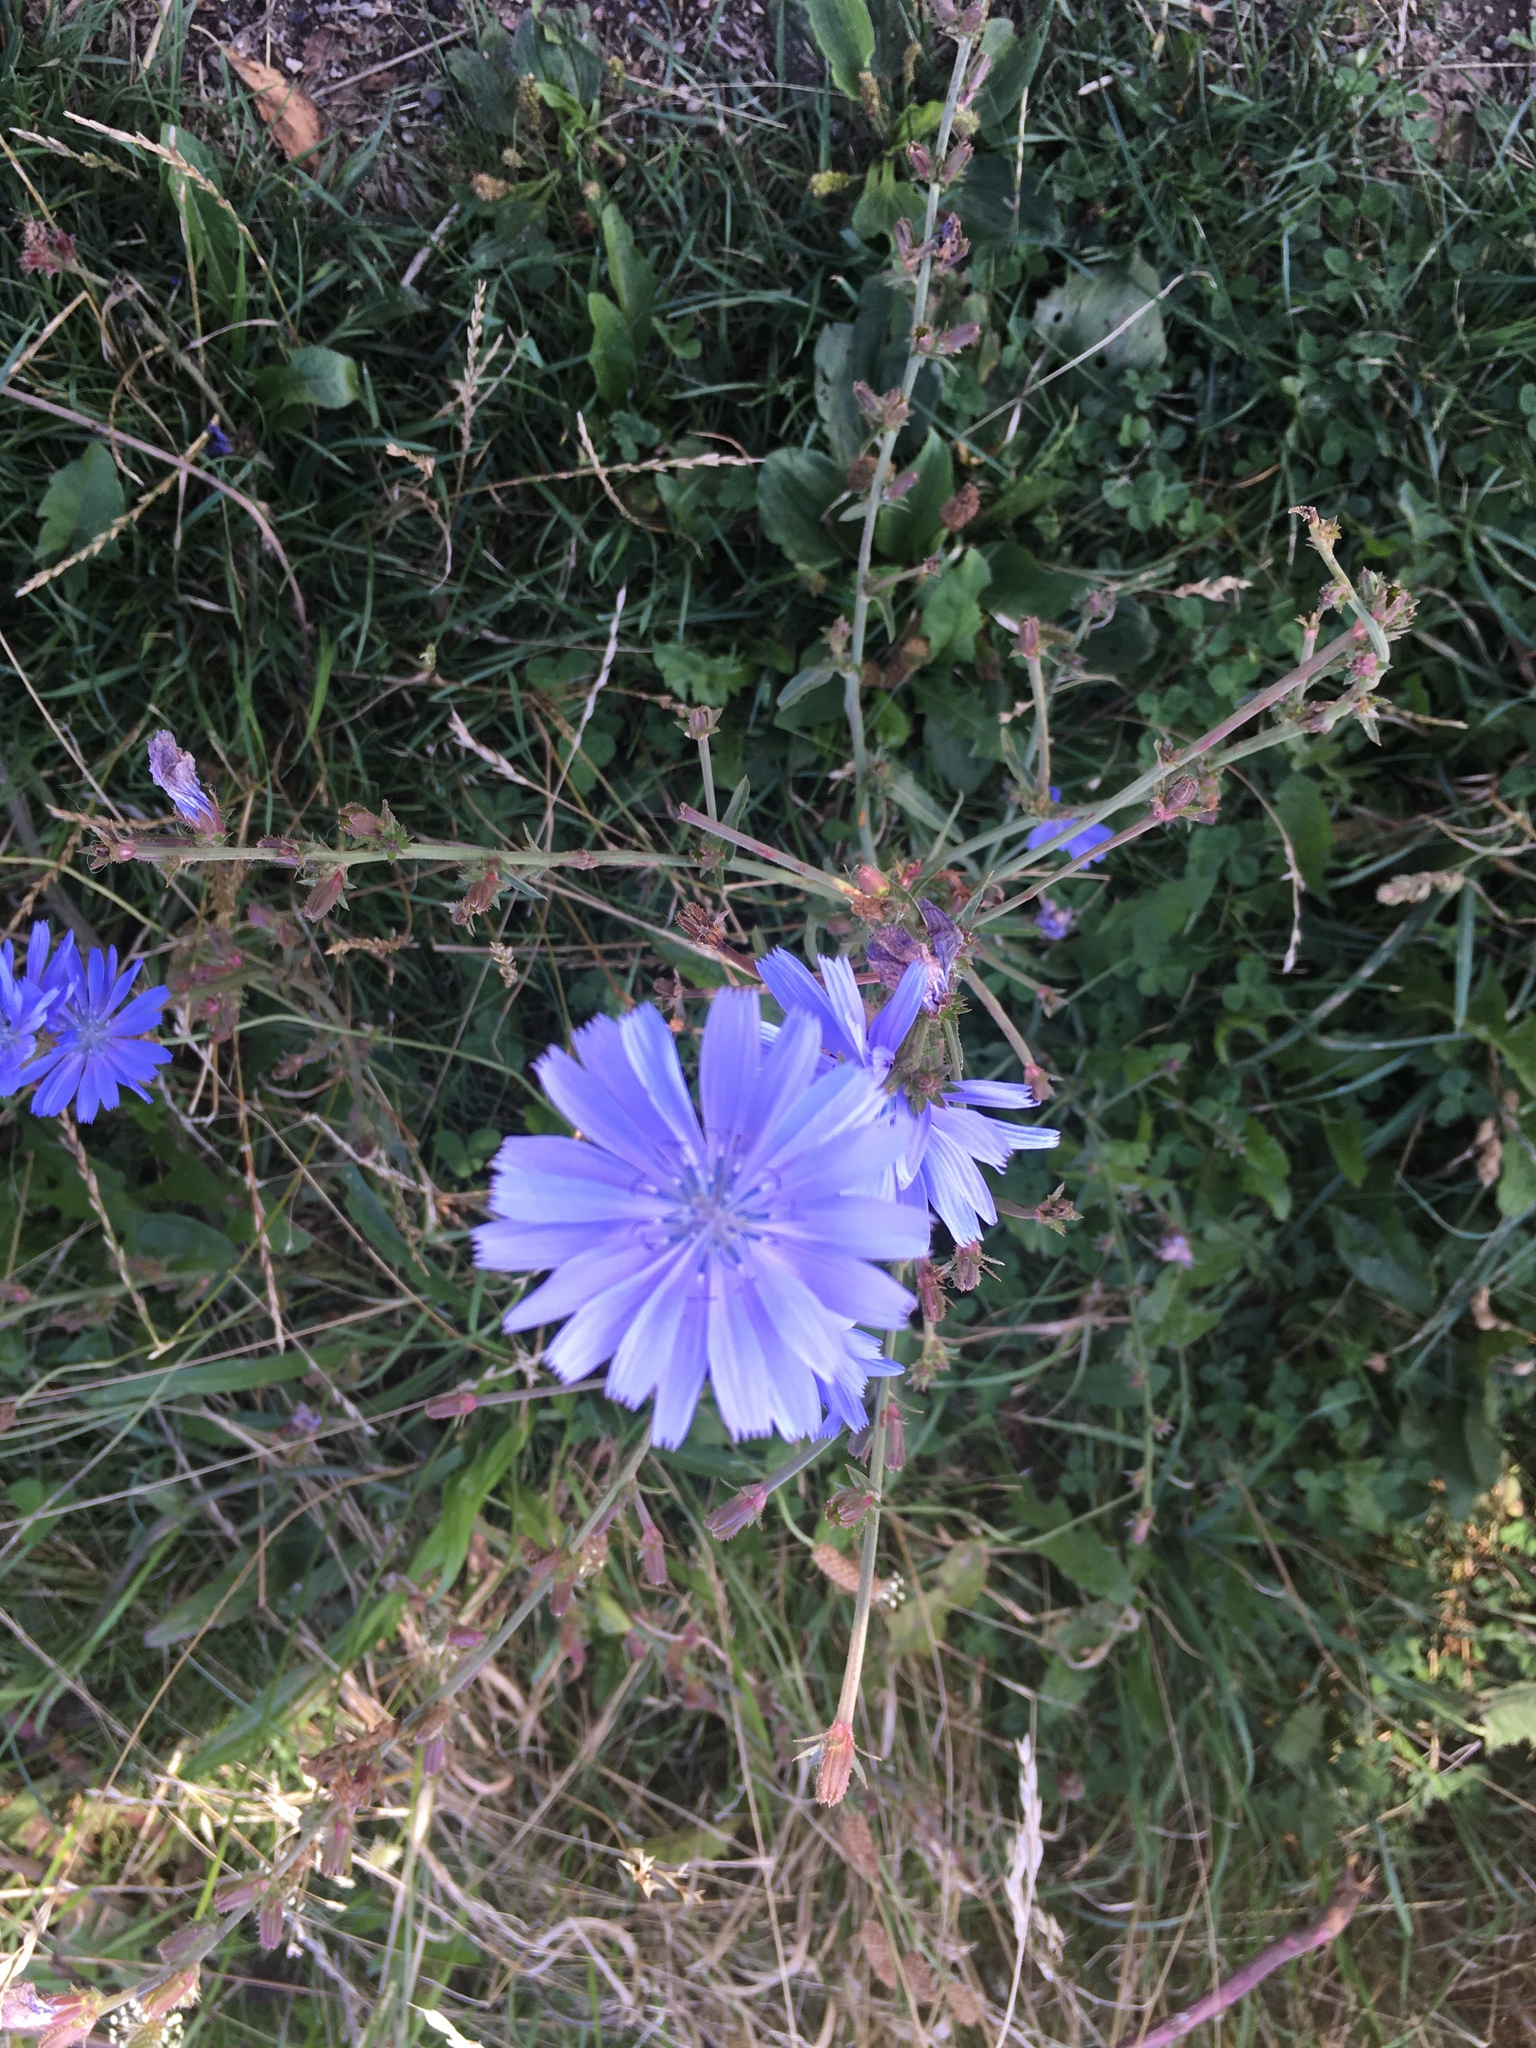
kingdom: Plantae
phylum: Tracheophyta
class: Magnoliopsida
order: Asterales
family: Asteraceae
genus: Cichorium
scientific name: Cichorium intybus
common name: Chicory
